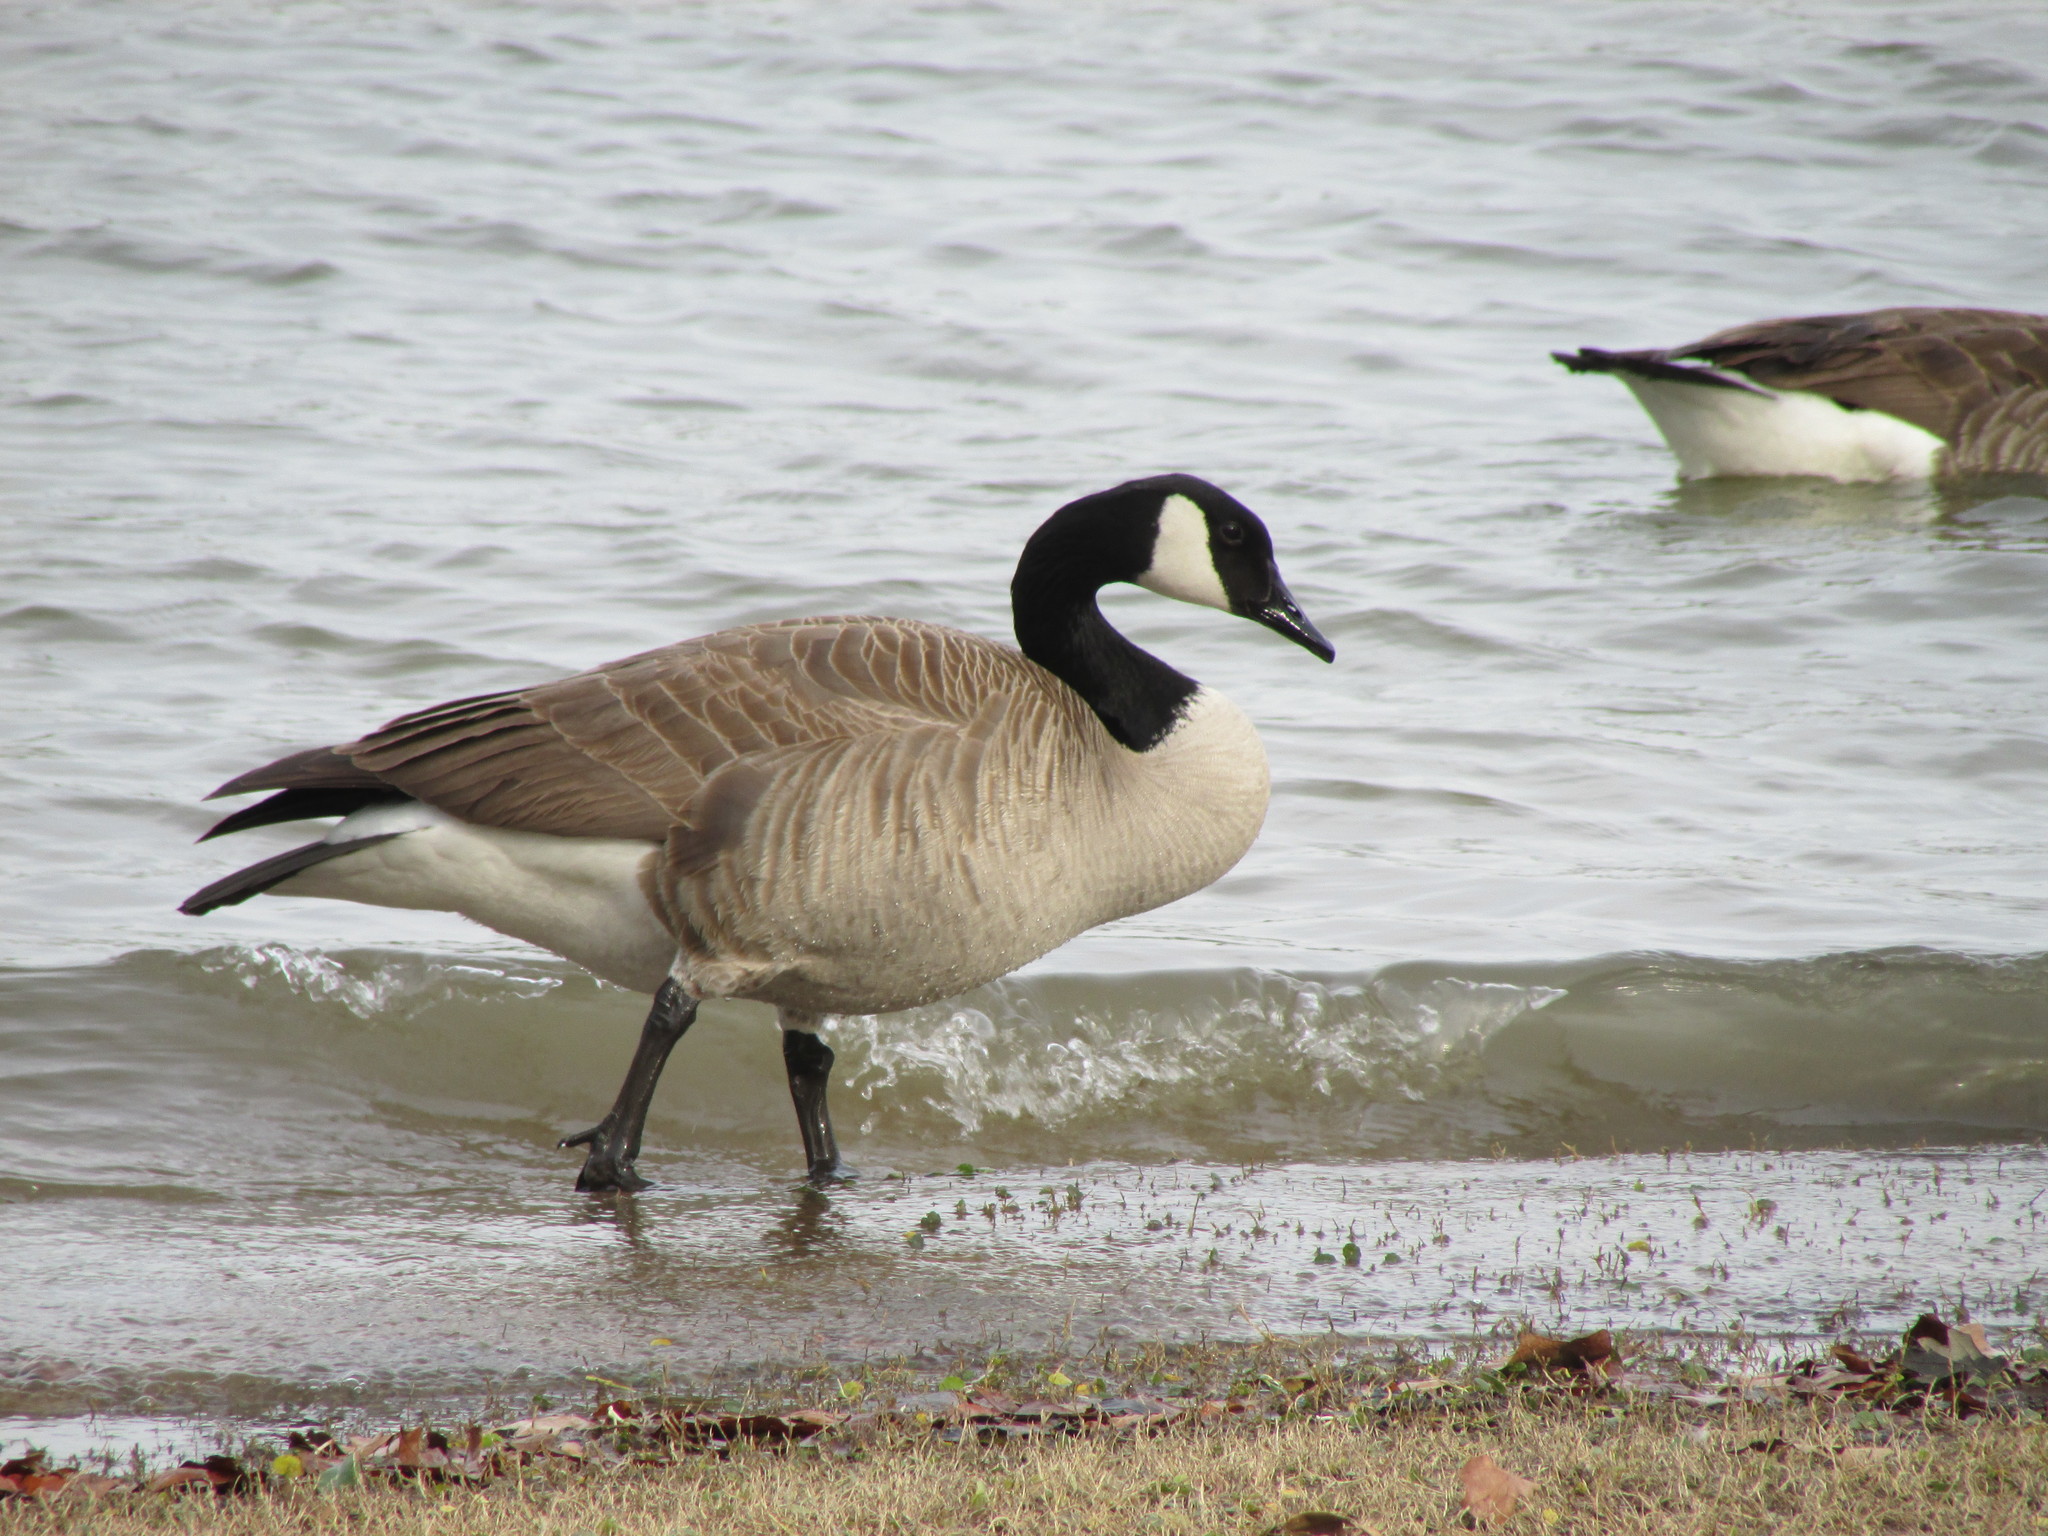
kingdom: Animalia
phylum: Chordata
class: Aves
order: Anseriformes
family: Anatidae
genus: Branta
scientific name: Branta canadensis
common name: Canada goose
